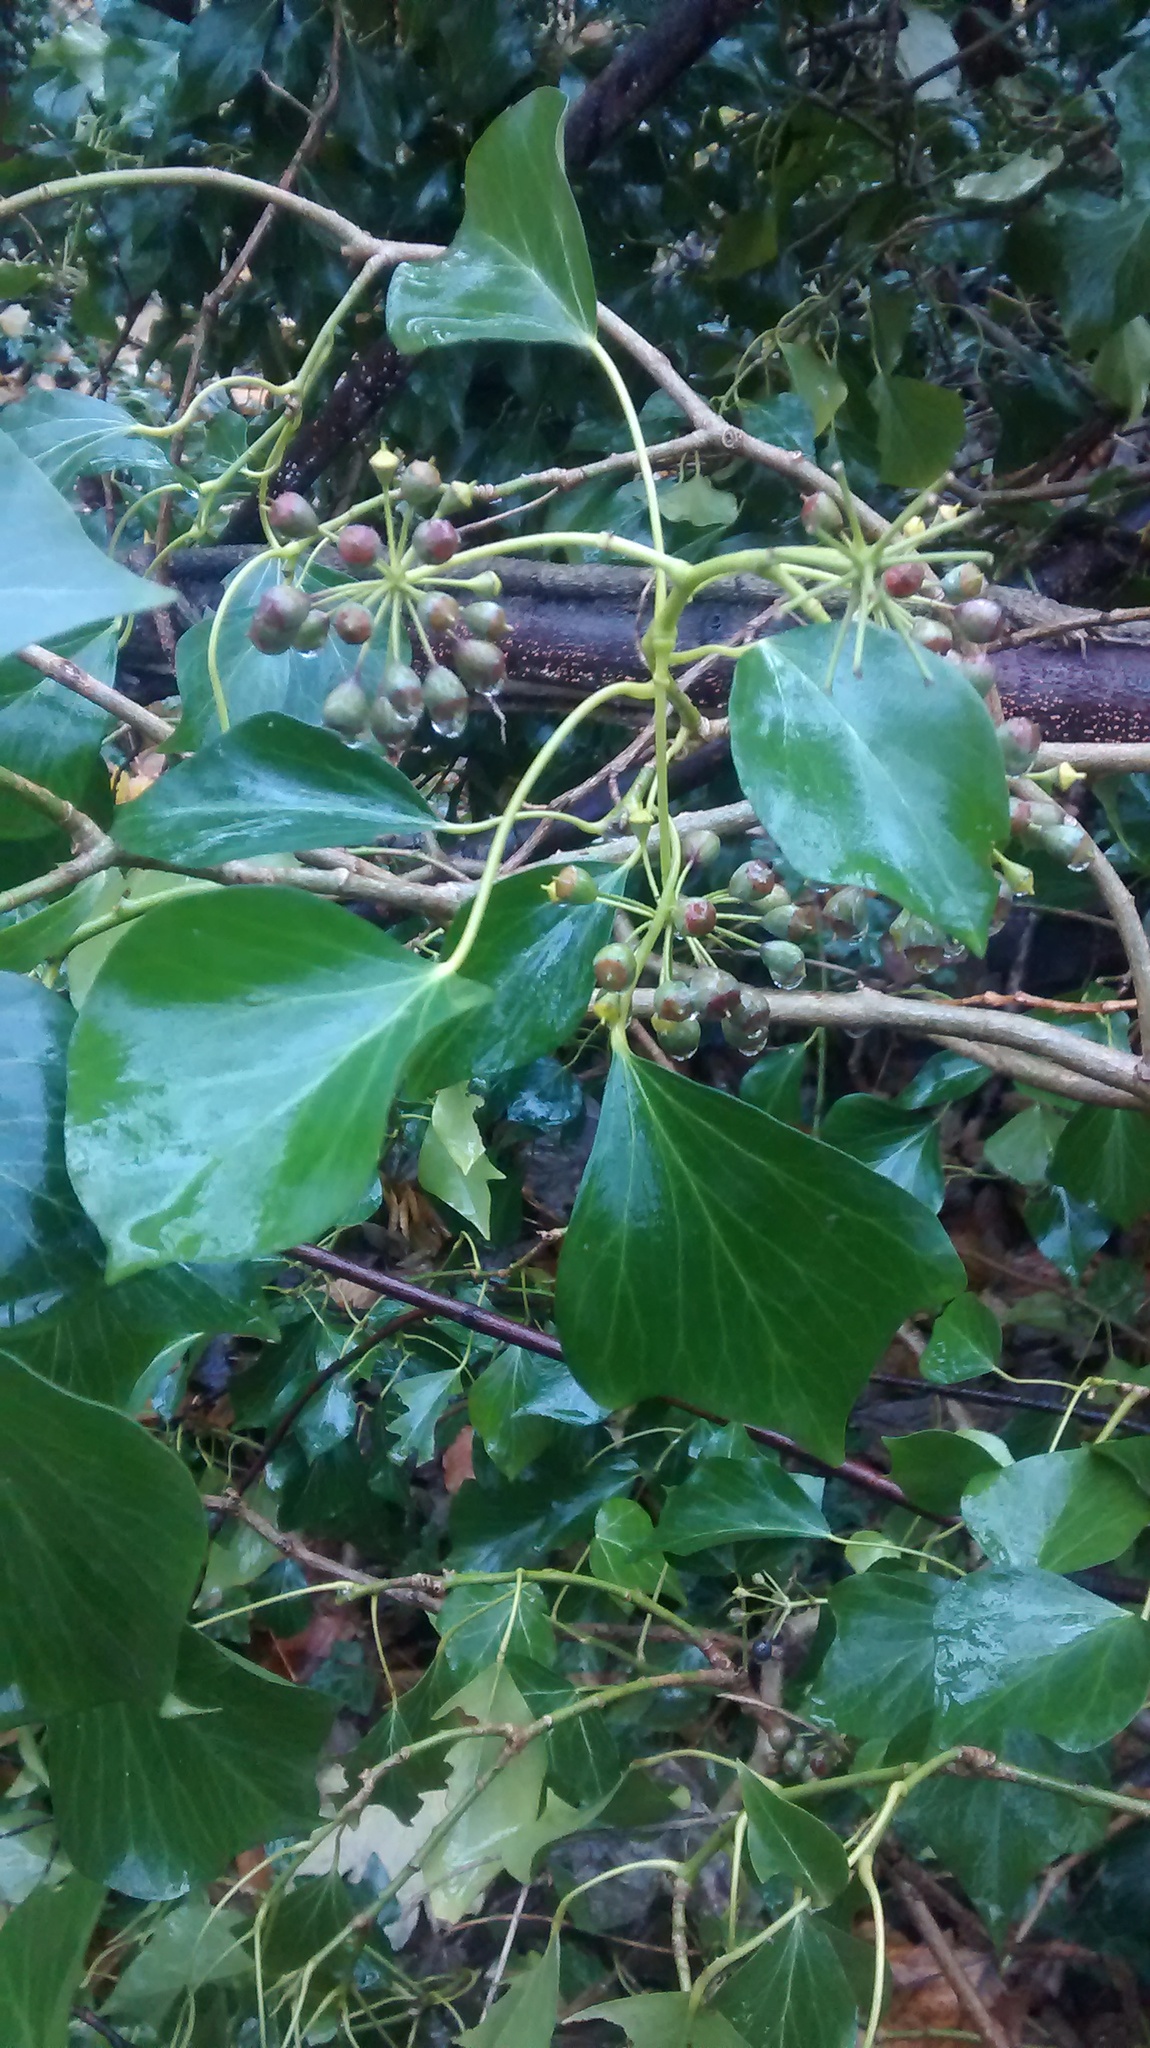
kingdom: Plantae
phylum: Tracheophyta
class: Magnoliopsida
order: Apiales
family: Araliaceae
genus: Hedera
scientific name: Hedera helix
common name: Ivy
